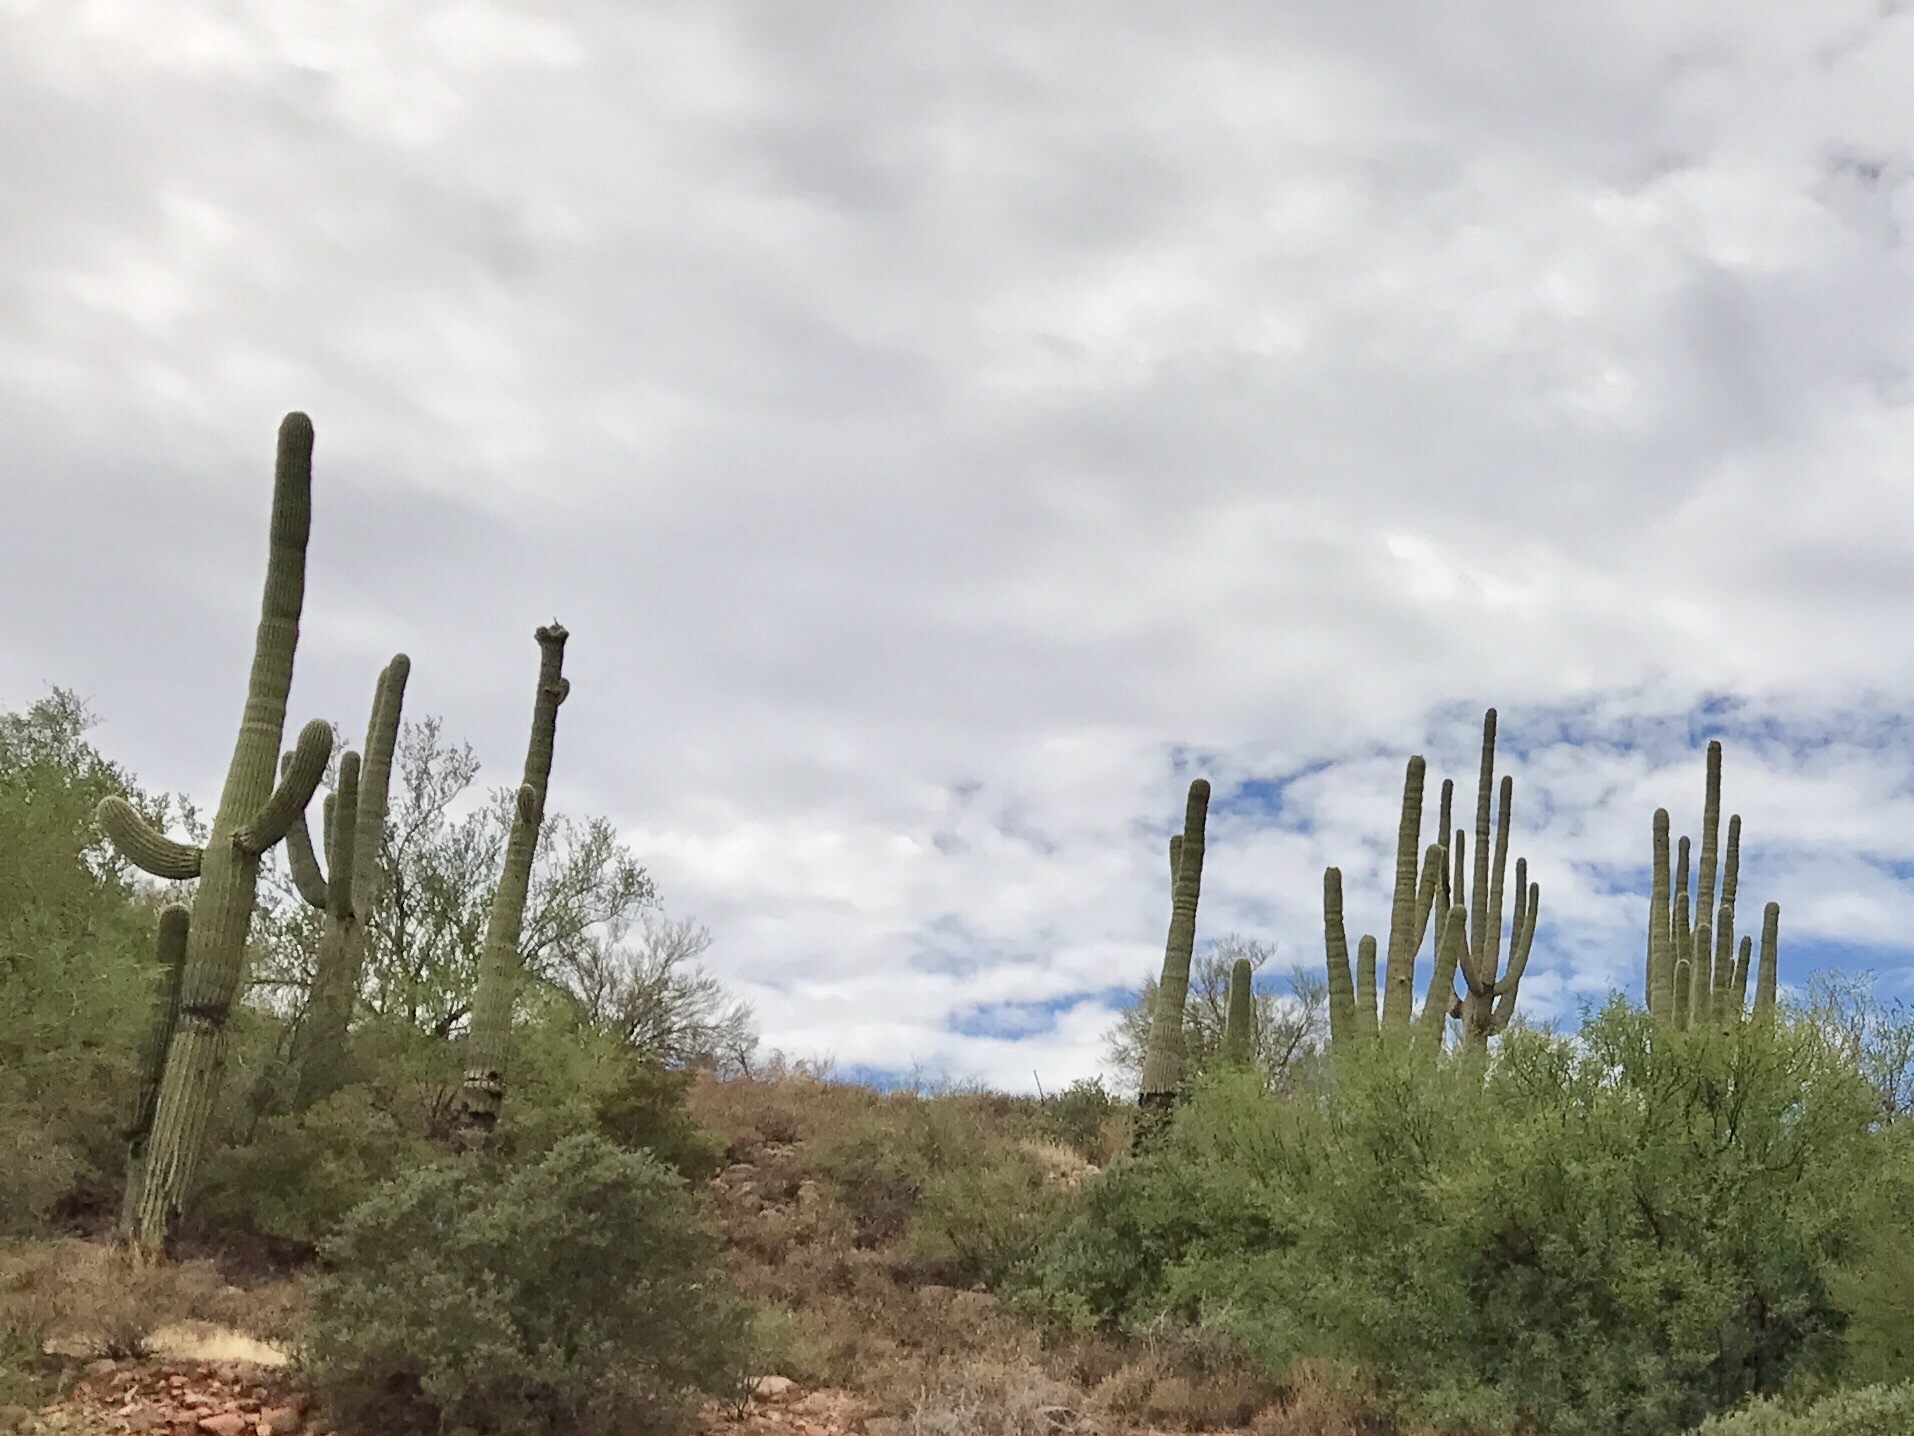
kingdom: Plantae
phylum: Tracheophyta
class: Magnoliopsida
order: Caryophyllales
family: Cactaceae
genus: Carnegiea
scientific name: Carnegiea gigantea
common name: Saguaro
